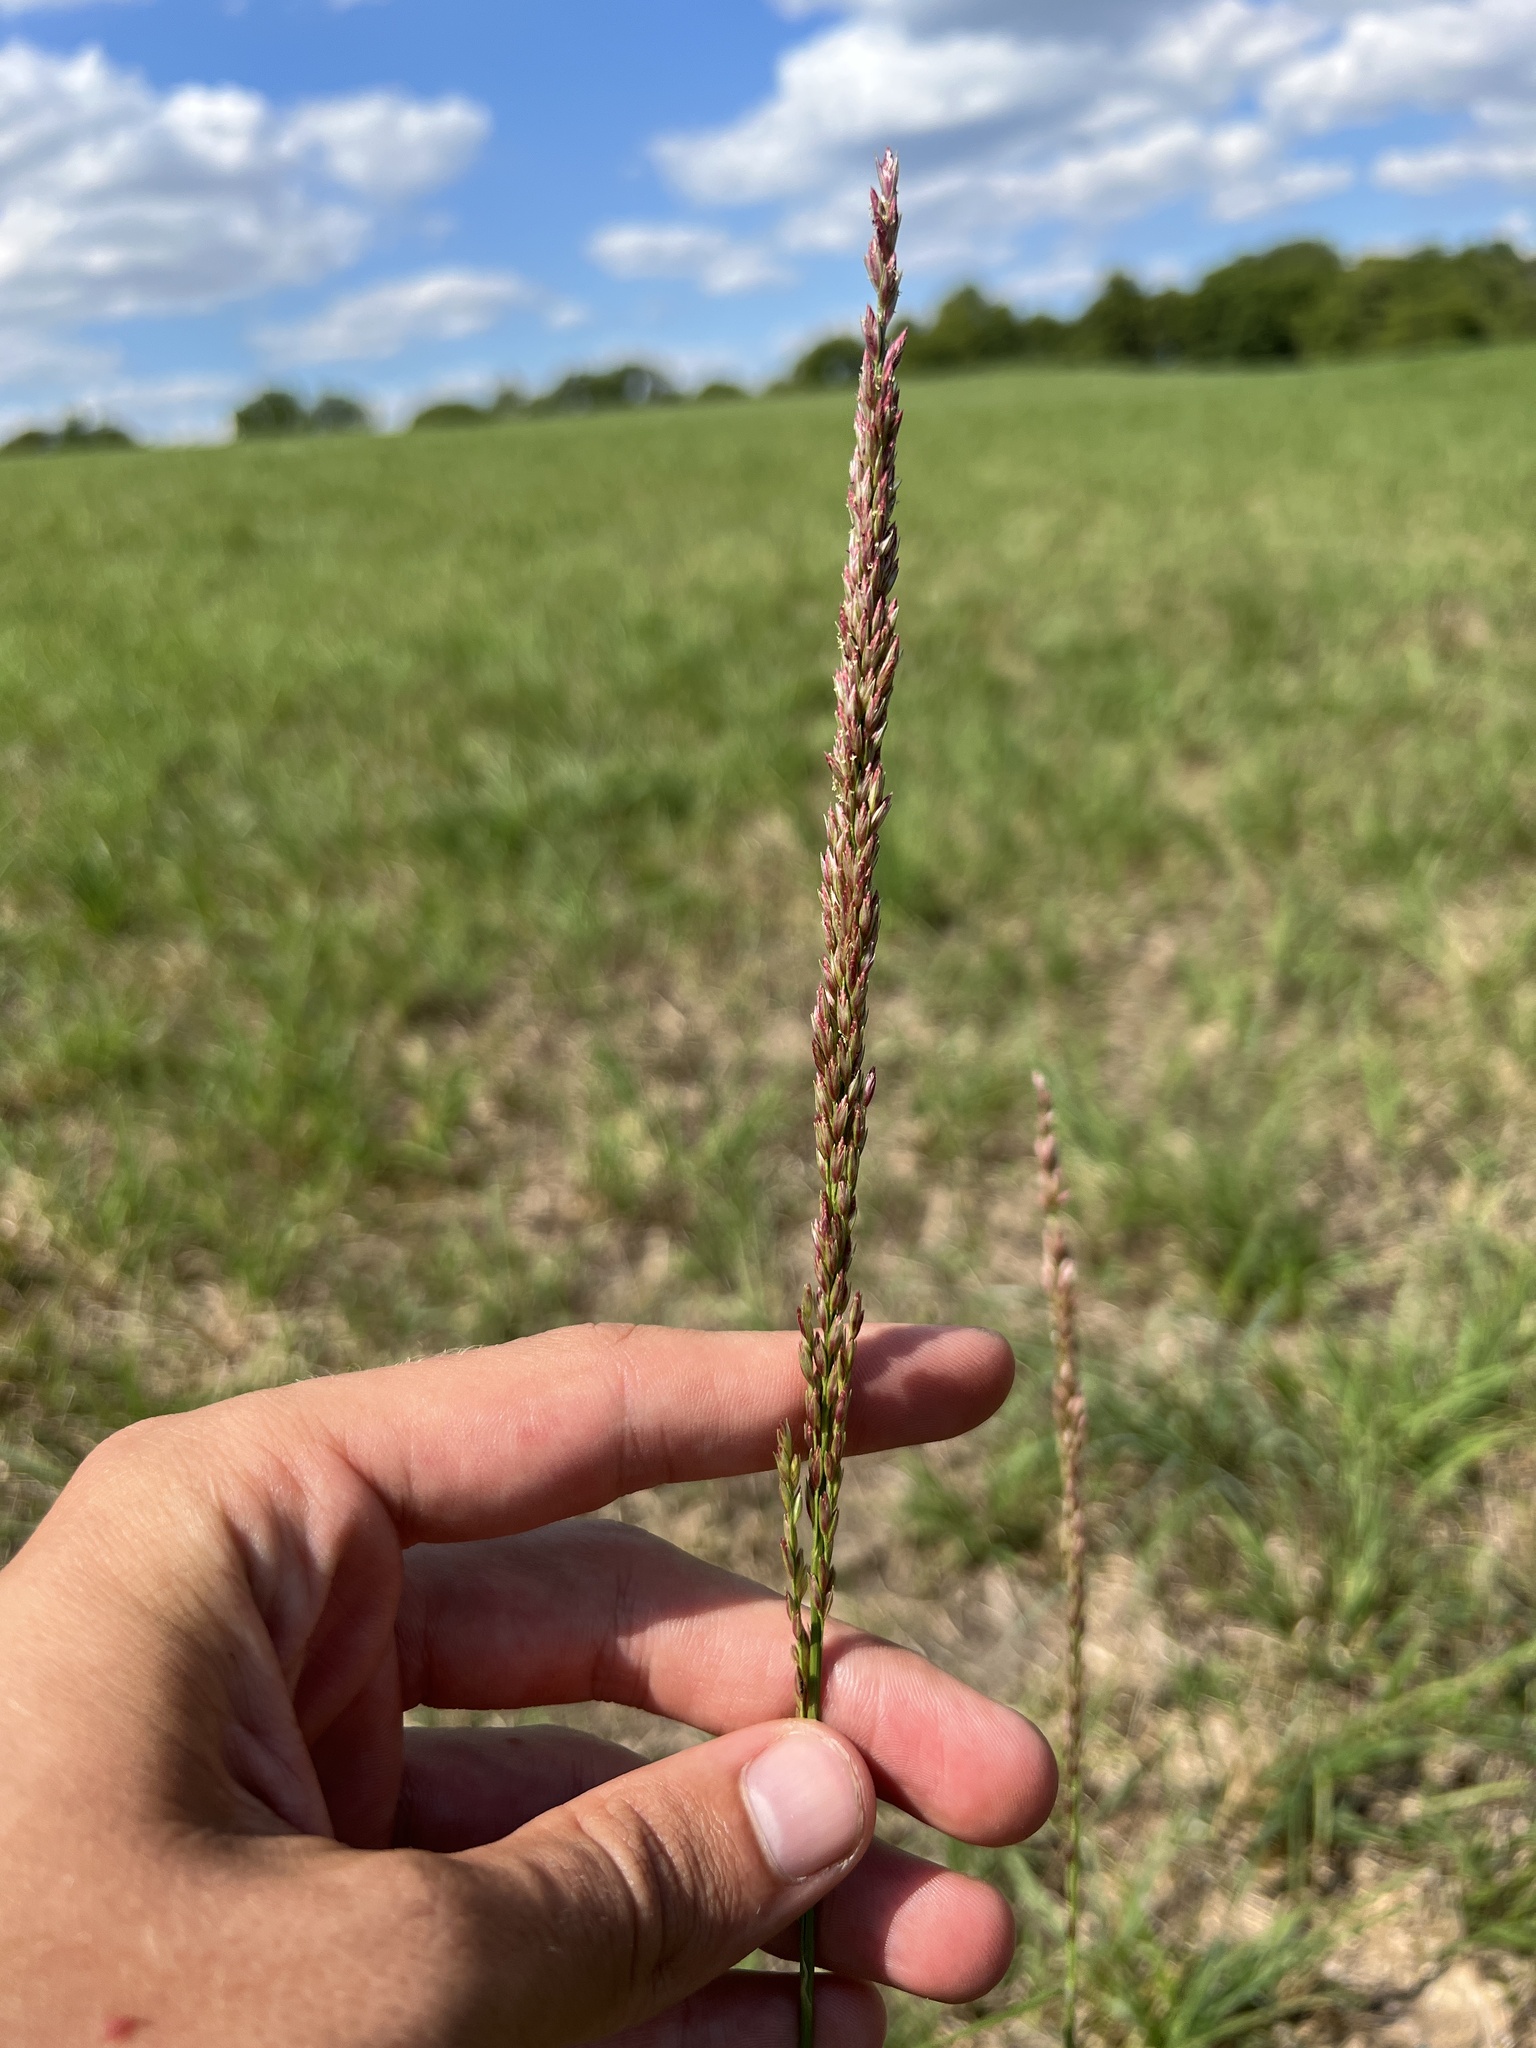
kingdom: Plantae
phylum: Tracheophyta
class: Liliopsida
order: Poales
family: Poaceae
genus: Tridens
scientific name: Tridens strictus
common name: Long-spike tridens
